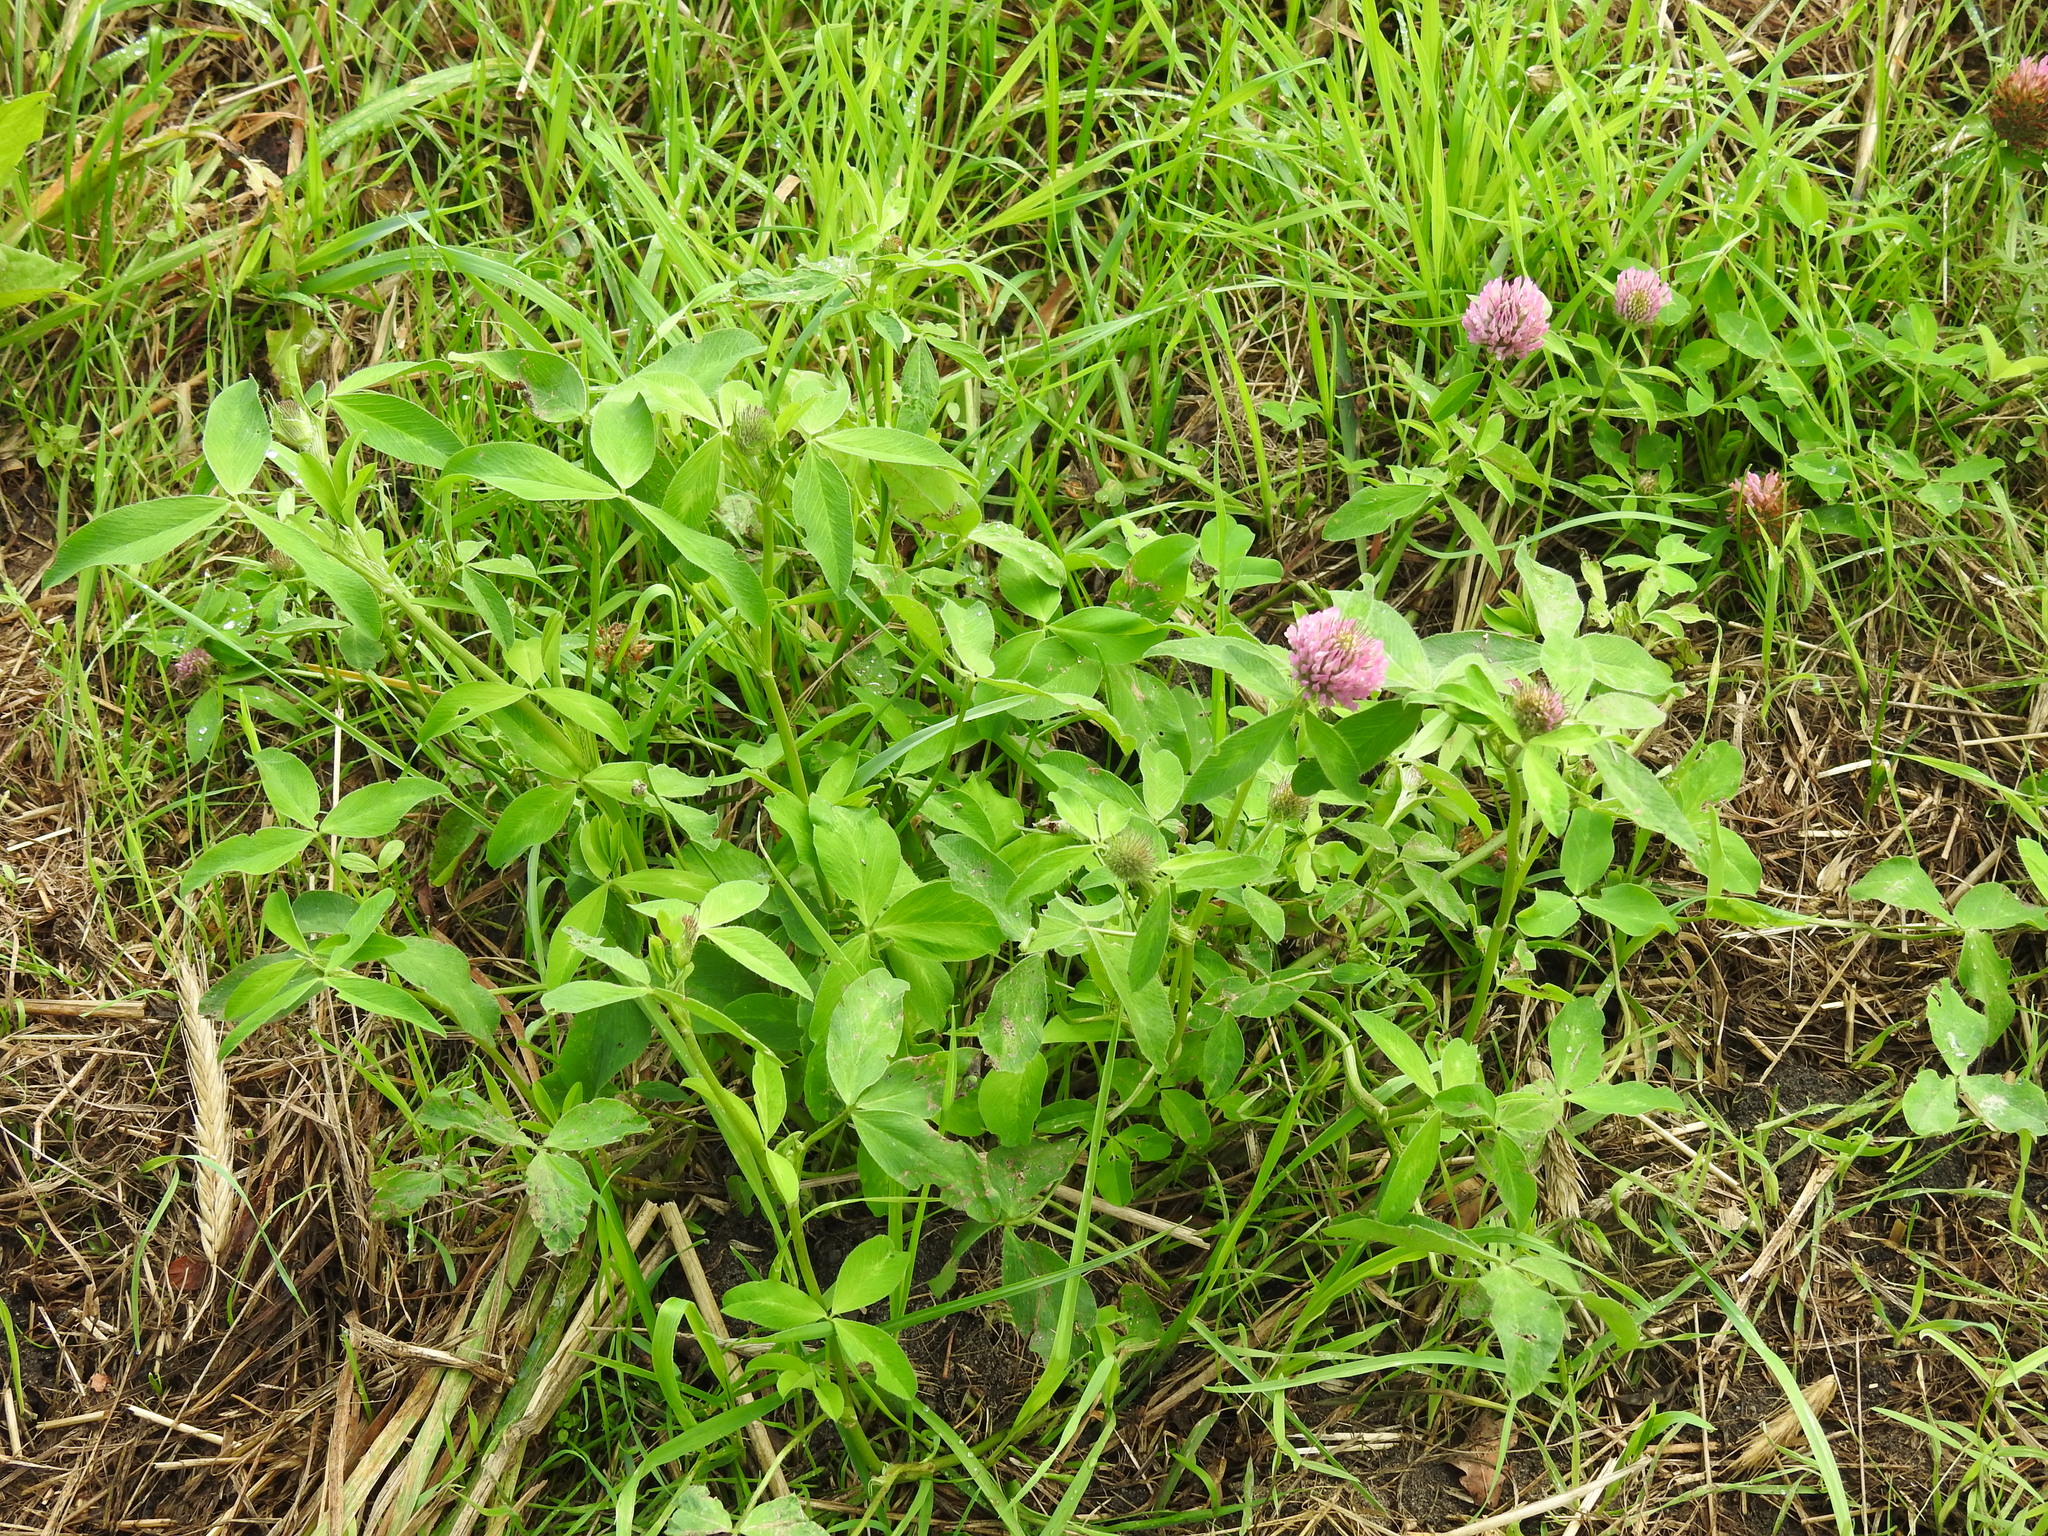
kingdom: Plantae
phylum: Tracheophyta
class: Magnoliopsida
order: Fabales
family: Fabaceae
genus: Trifolium
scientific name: Trifolium pratense
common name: Red clover
